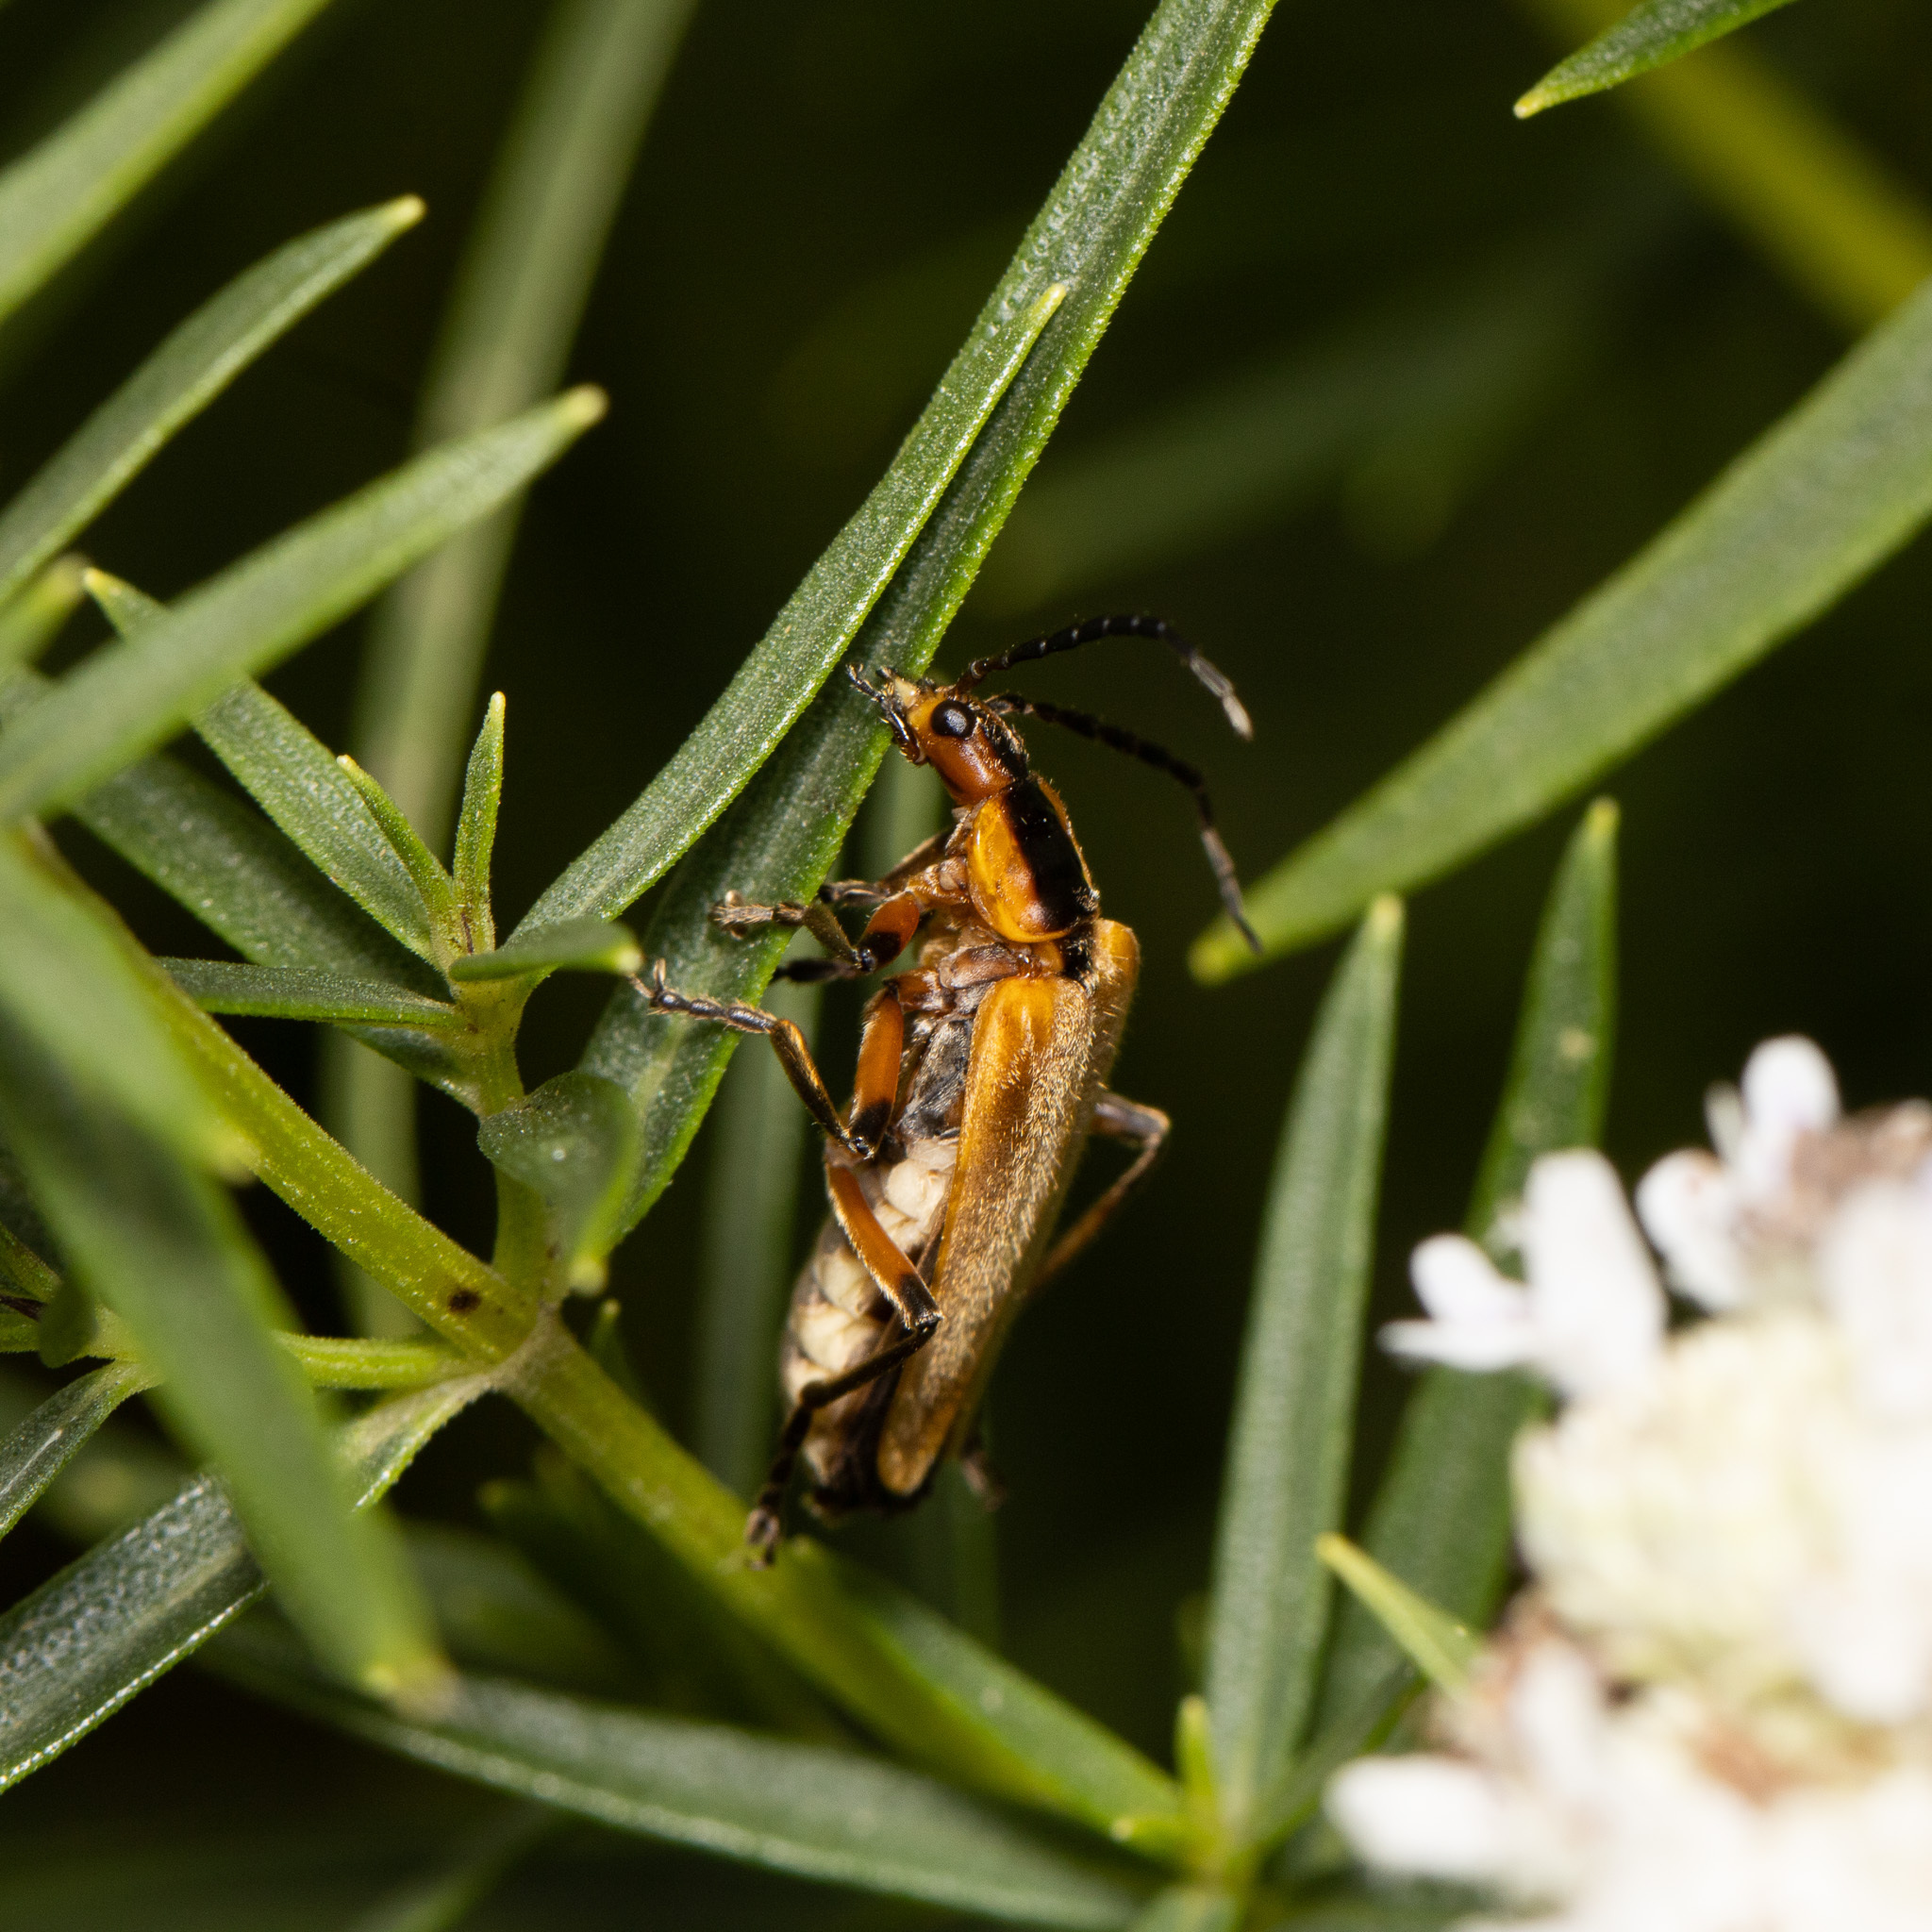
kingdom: Animalia
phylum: Arthropoda
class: Insecta
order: Coleoptera
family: Cantharidae
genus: Chauliognathus
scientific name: Chauliognathus marginatus
